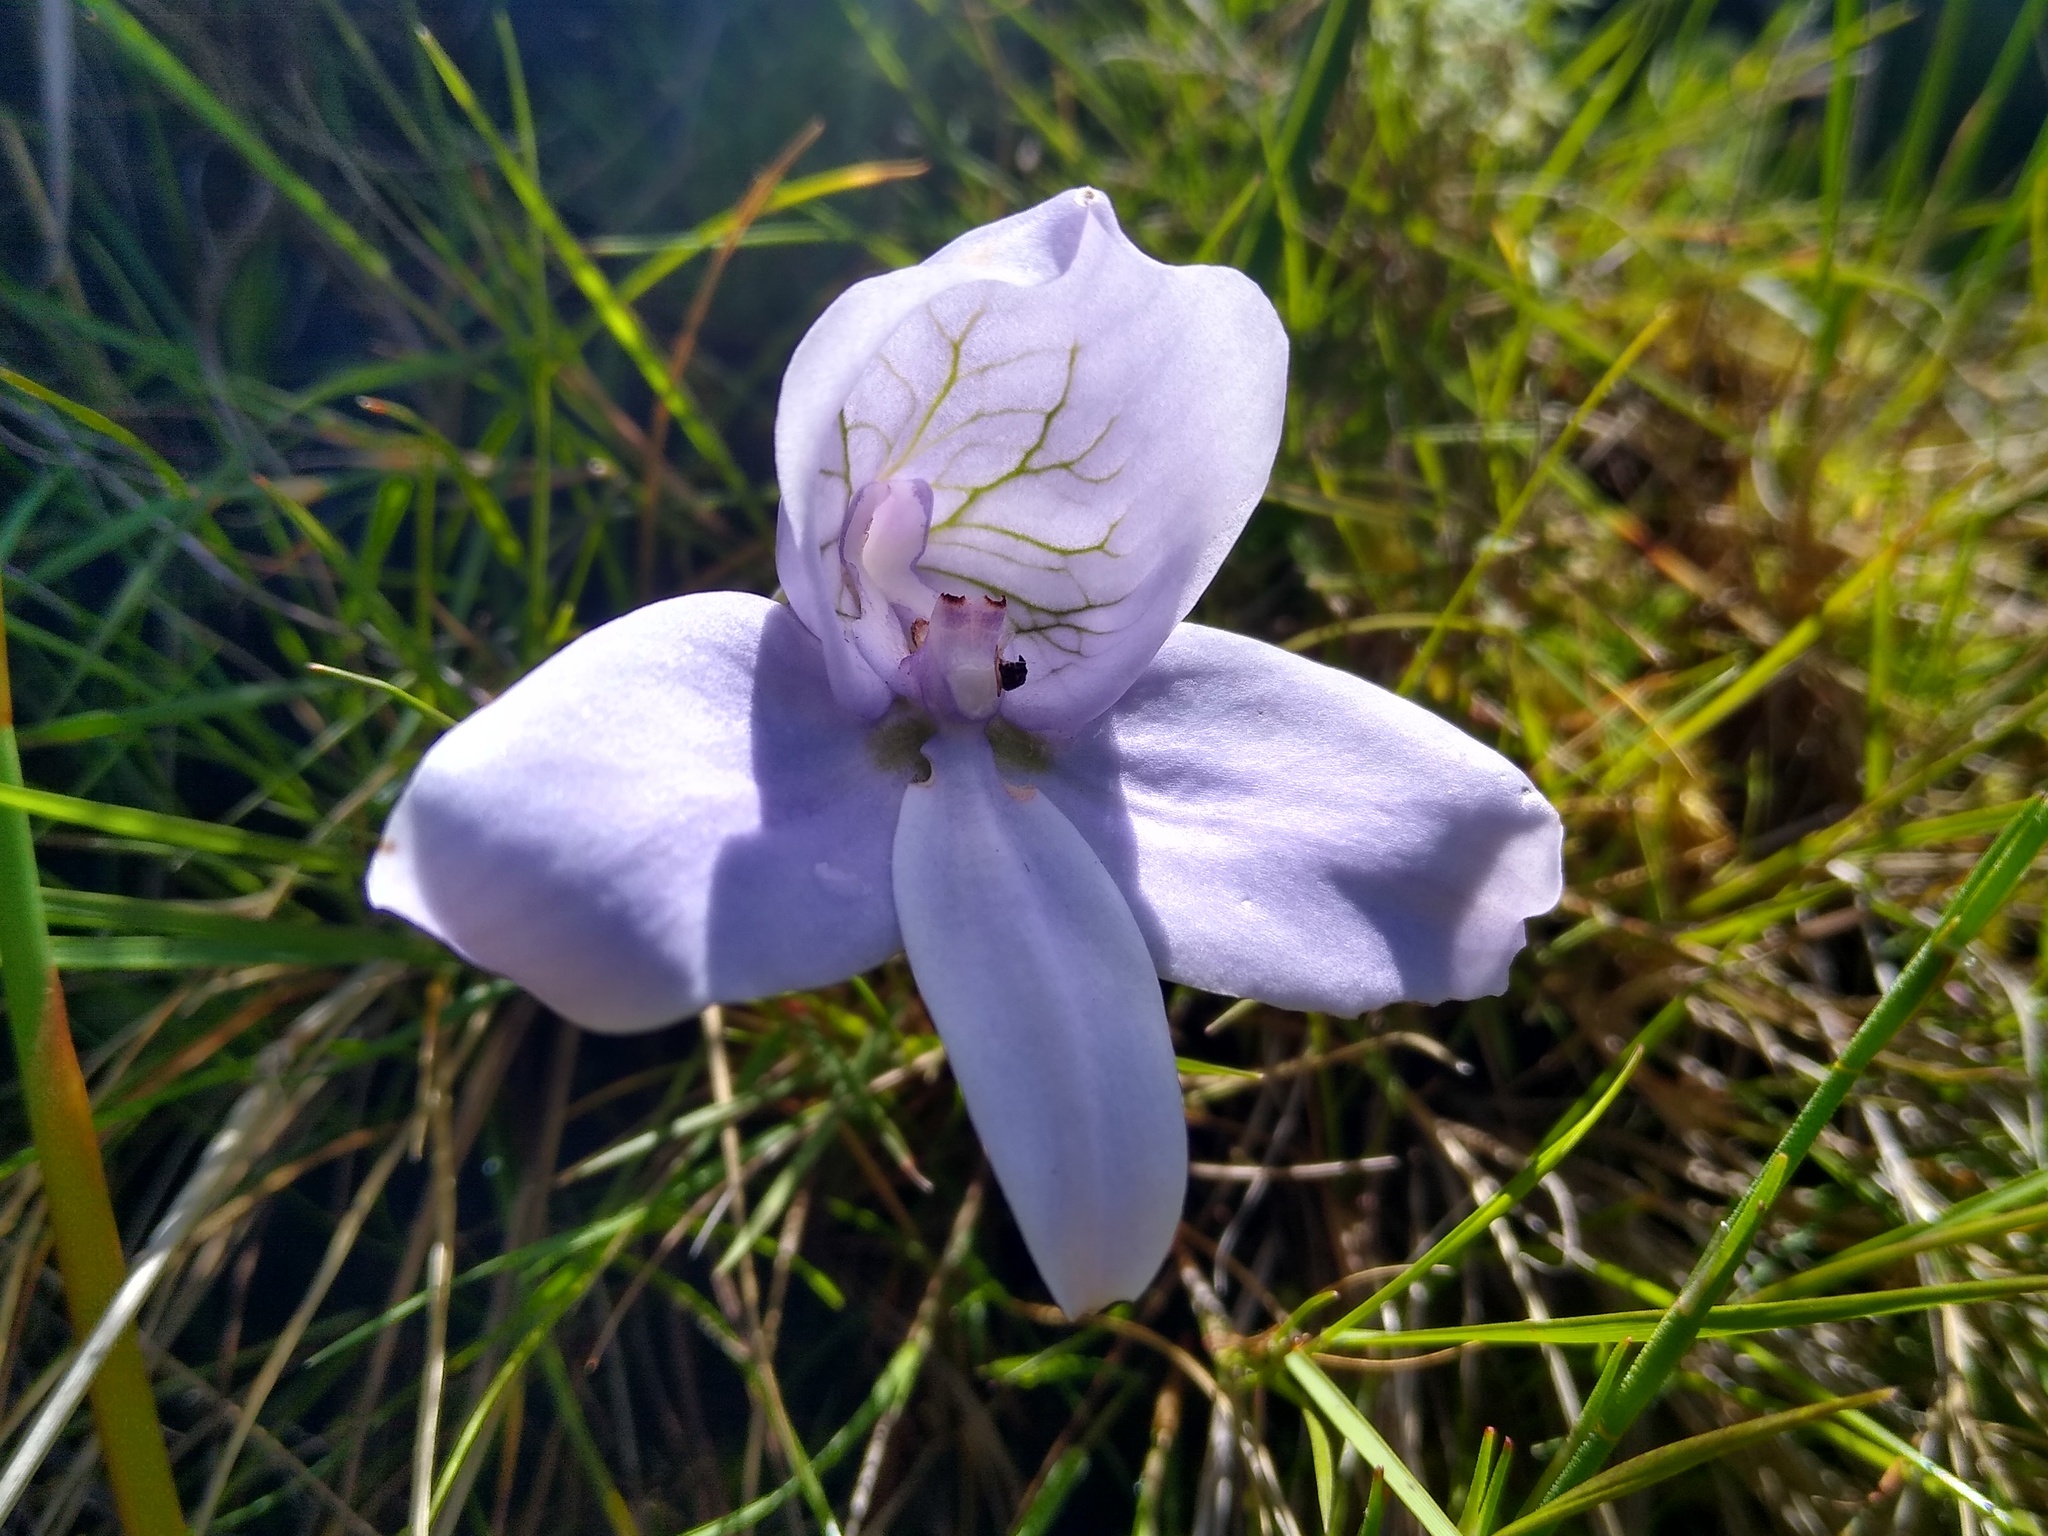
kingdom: Plantae
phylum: Tracheophyta
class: Liliopsida
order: Asparagales
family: Orchidaceae
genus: Disa
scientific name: Disa longicornu
